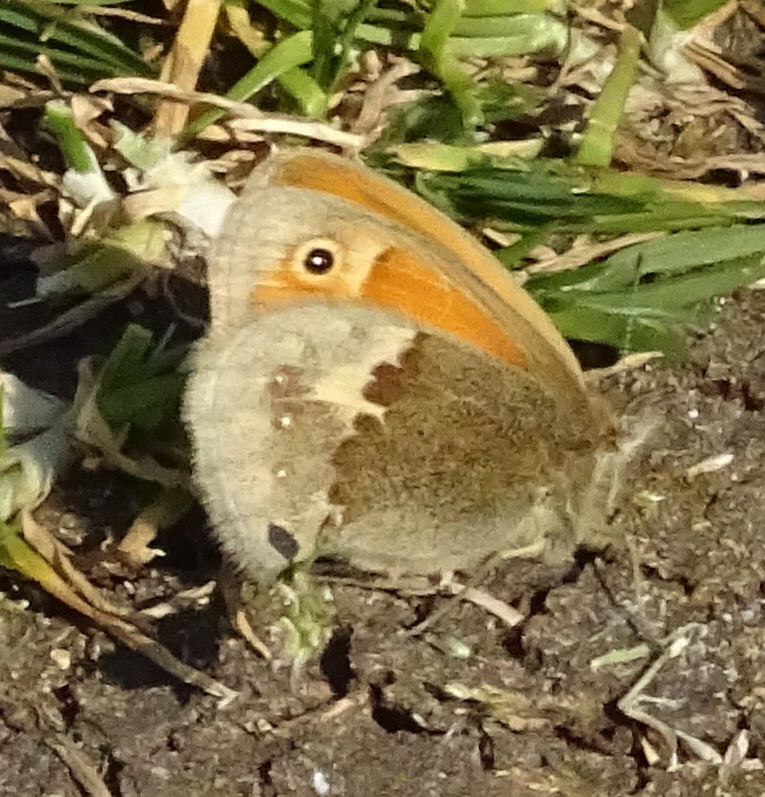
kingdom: Animalia
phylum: Arthropoda
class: Insecta
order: Lepidoptera
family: Nymphalidae
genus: Coenonympha
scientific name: Coenonympha pamphilus
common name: Small heath
